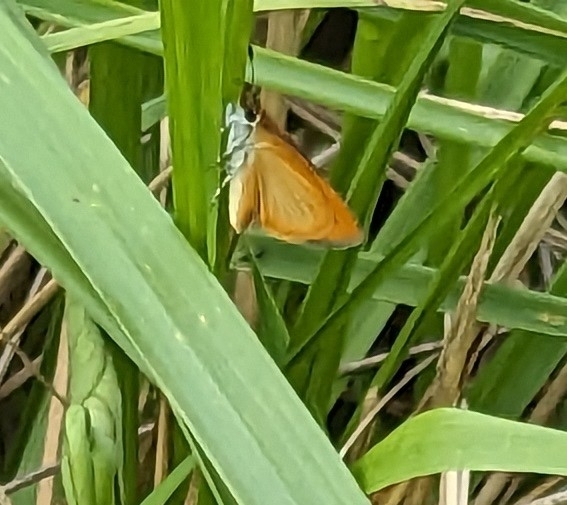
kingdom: Animalia
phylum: Arthropoda
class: Insecta
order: Lepidoptera
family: Hesperiidae
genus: Ancyloxypha
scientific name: Ancyloxypha numitor
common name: Least skipper
